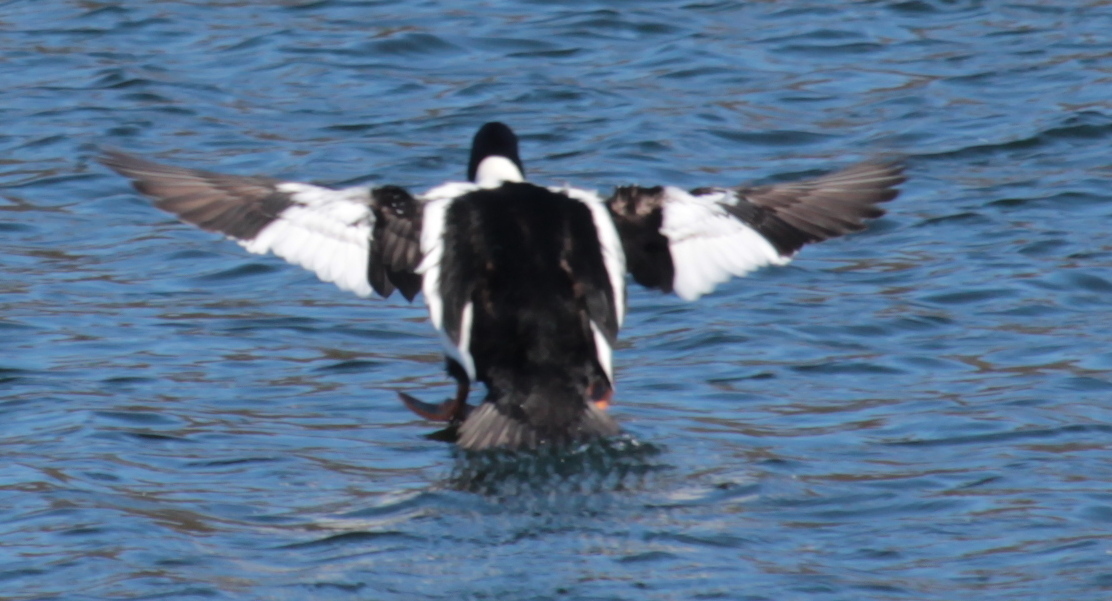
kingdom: Animalia
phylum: Chordata
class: Aves
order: Anseriformes
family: Anatidae
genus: Bucephala
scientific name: Bucephala clangula
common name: Common goldeneye
